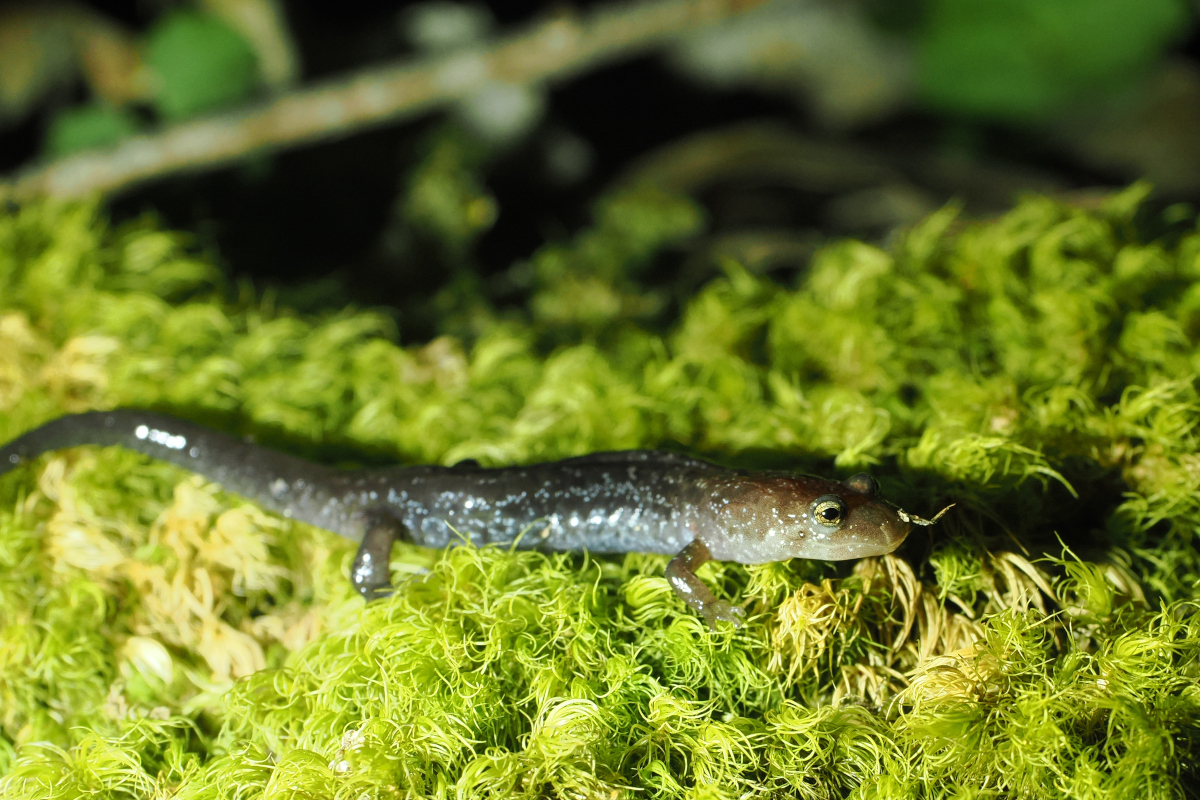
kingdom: Animalia
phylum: Chordata
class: Amphibia
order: Caudata
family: Plethodontidae
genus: Desmognathus
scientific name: Desmognathus orestes
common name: Blue ridge dusky salamander
